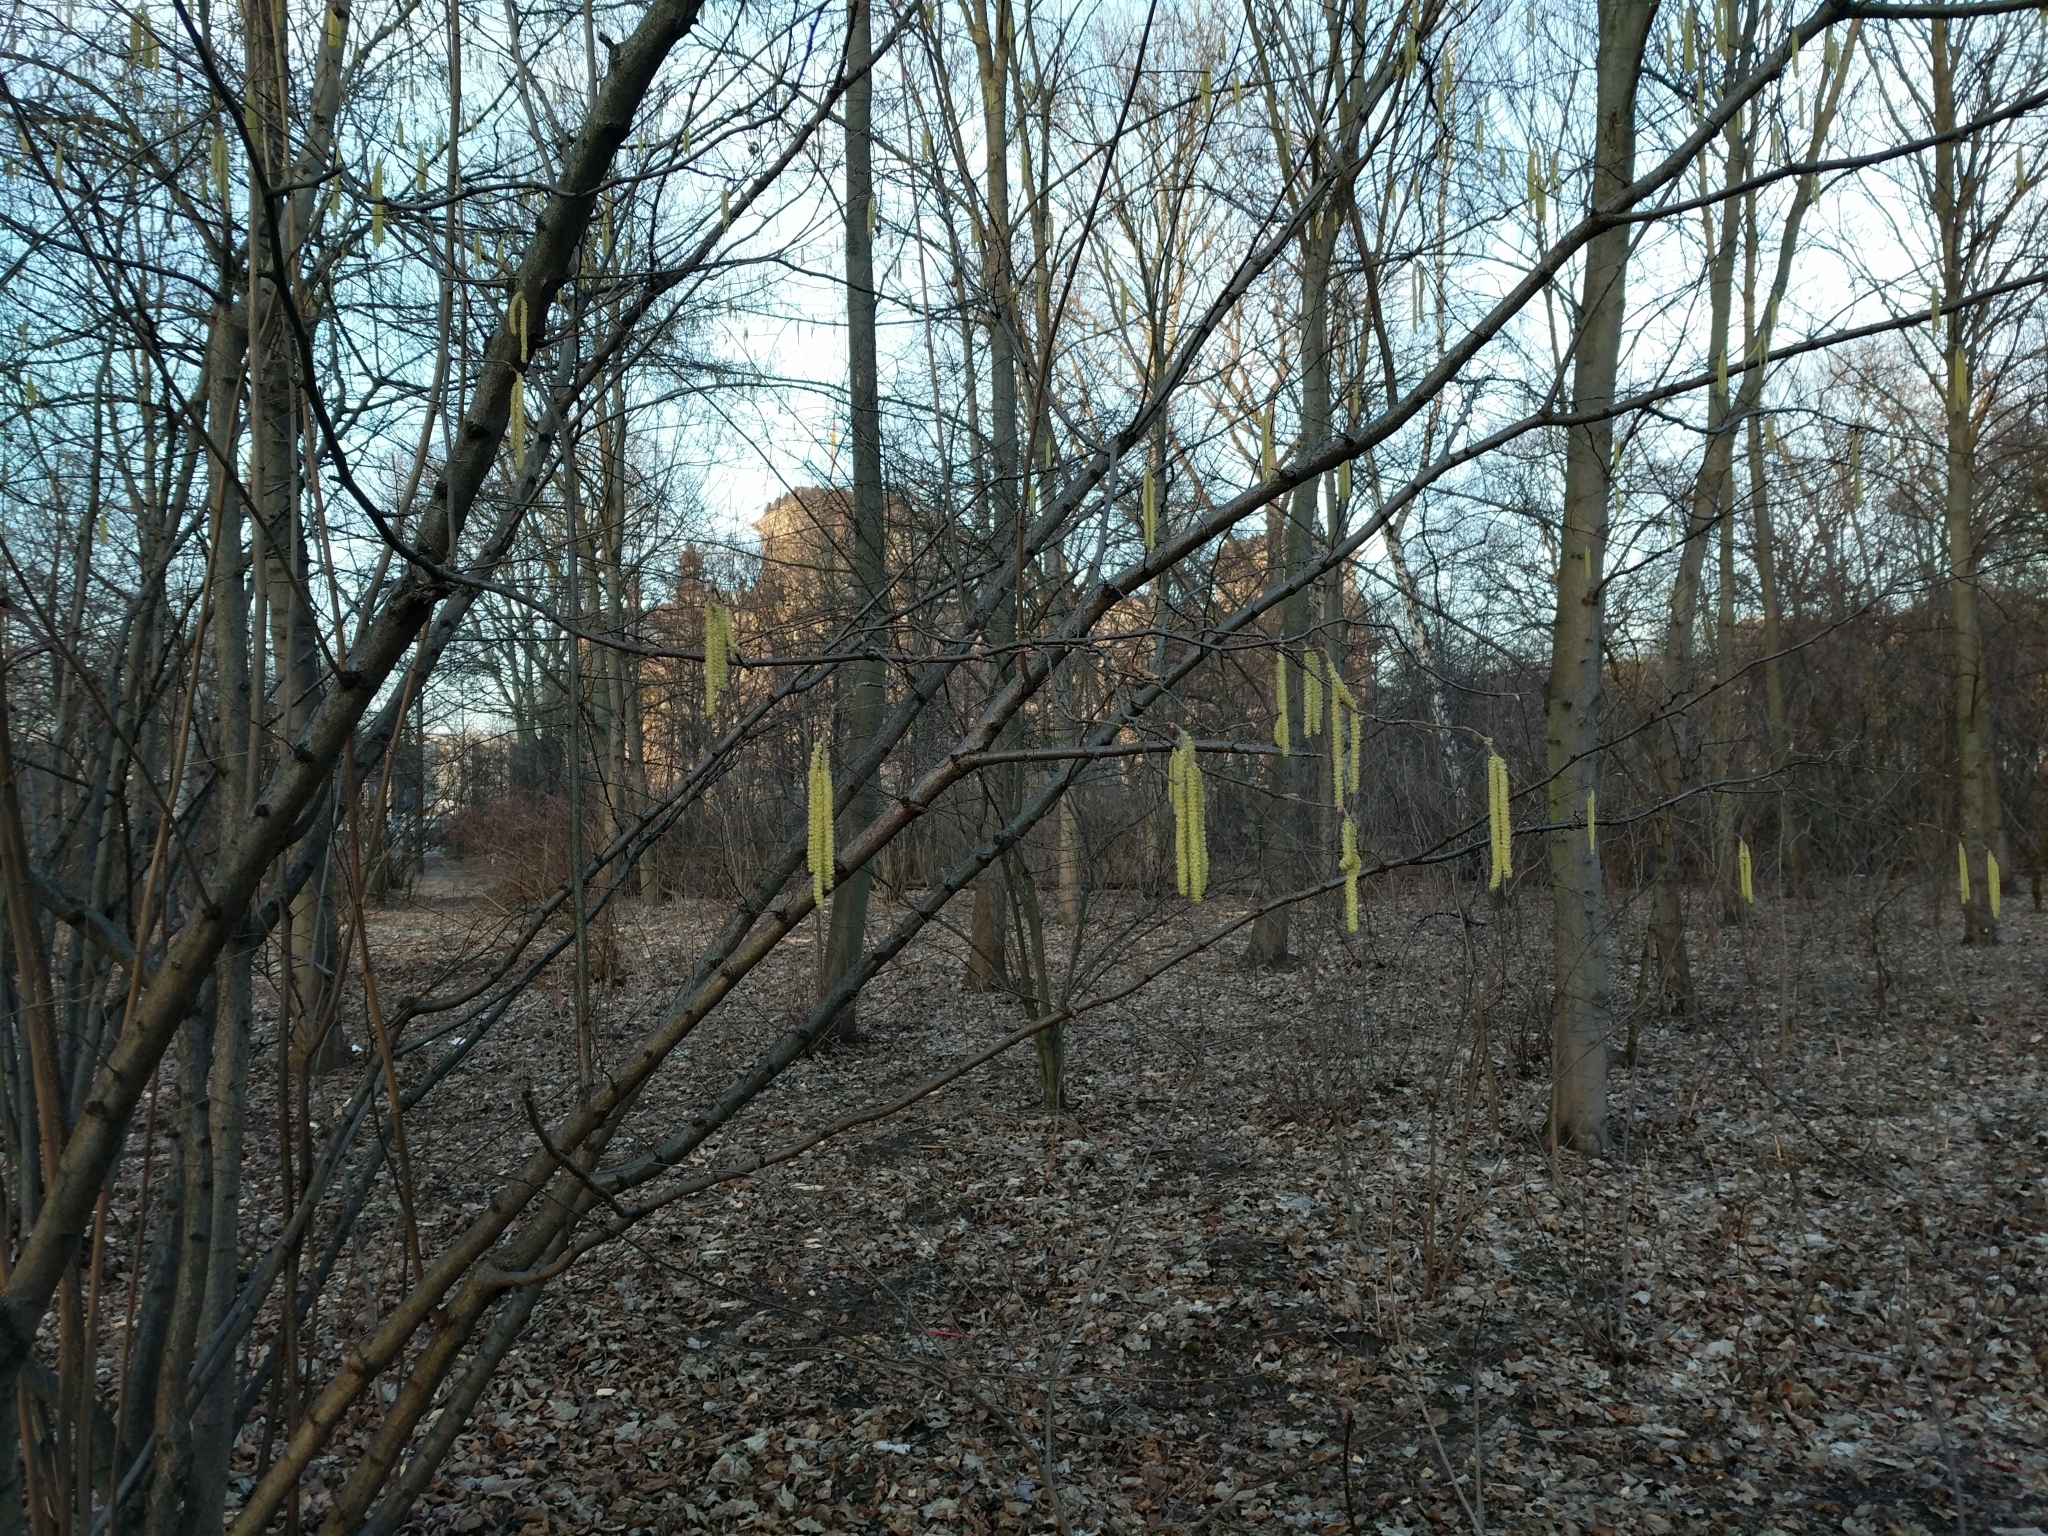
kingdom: Plantae
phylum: Tracheophyta
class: Magnoliopsida
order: Fagales
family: Betulaceae
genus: Corylus
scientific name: Corylus avellana
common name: European hazel
